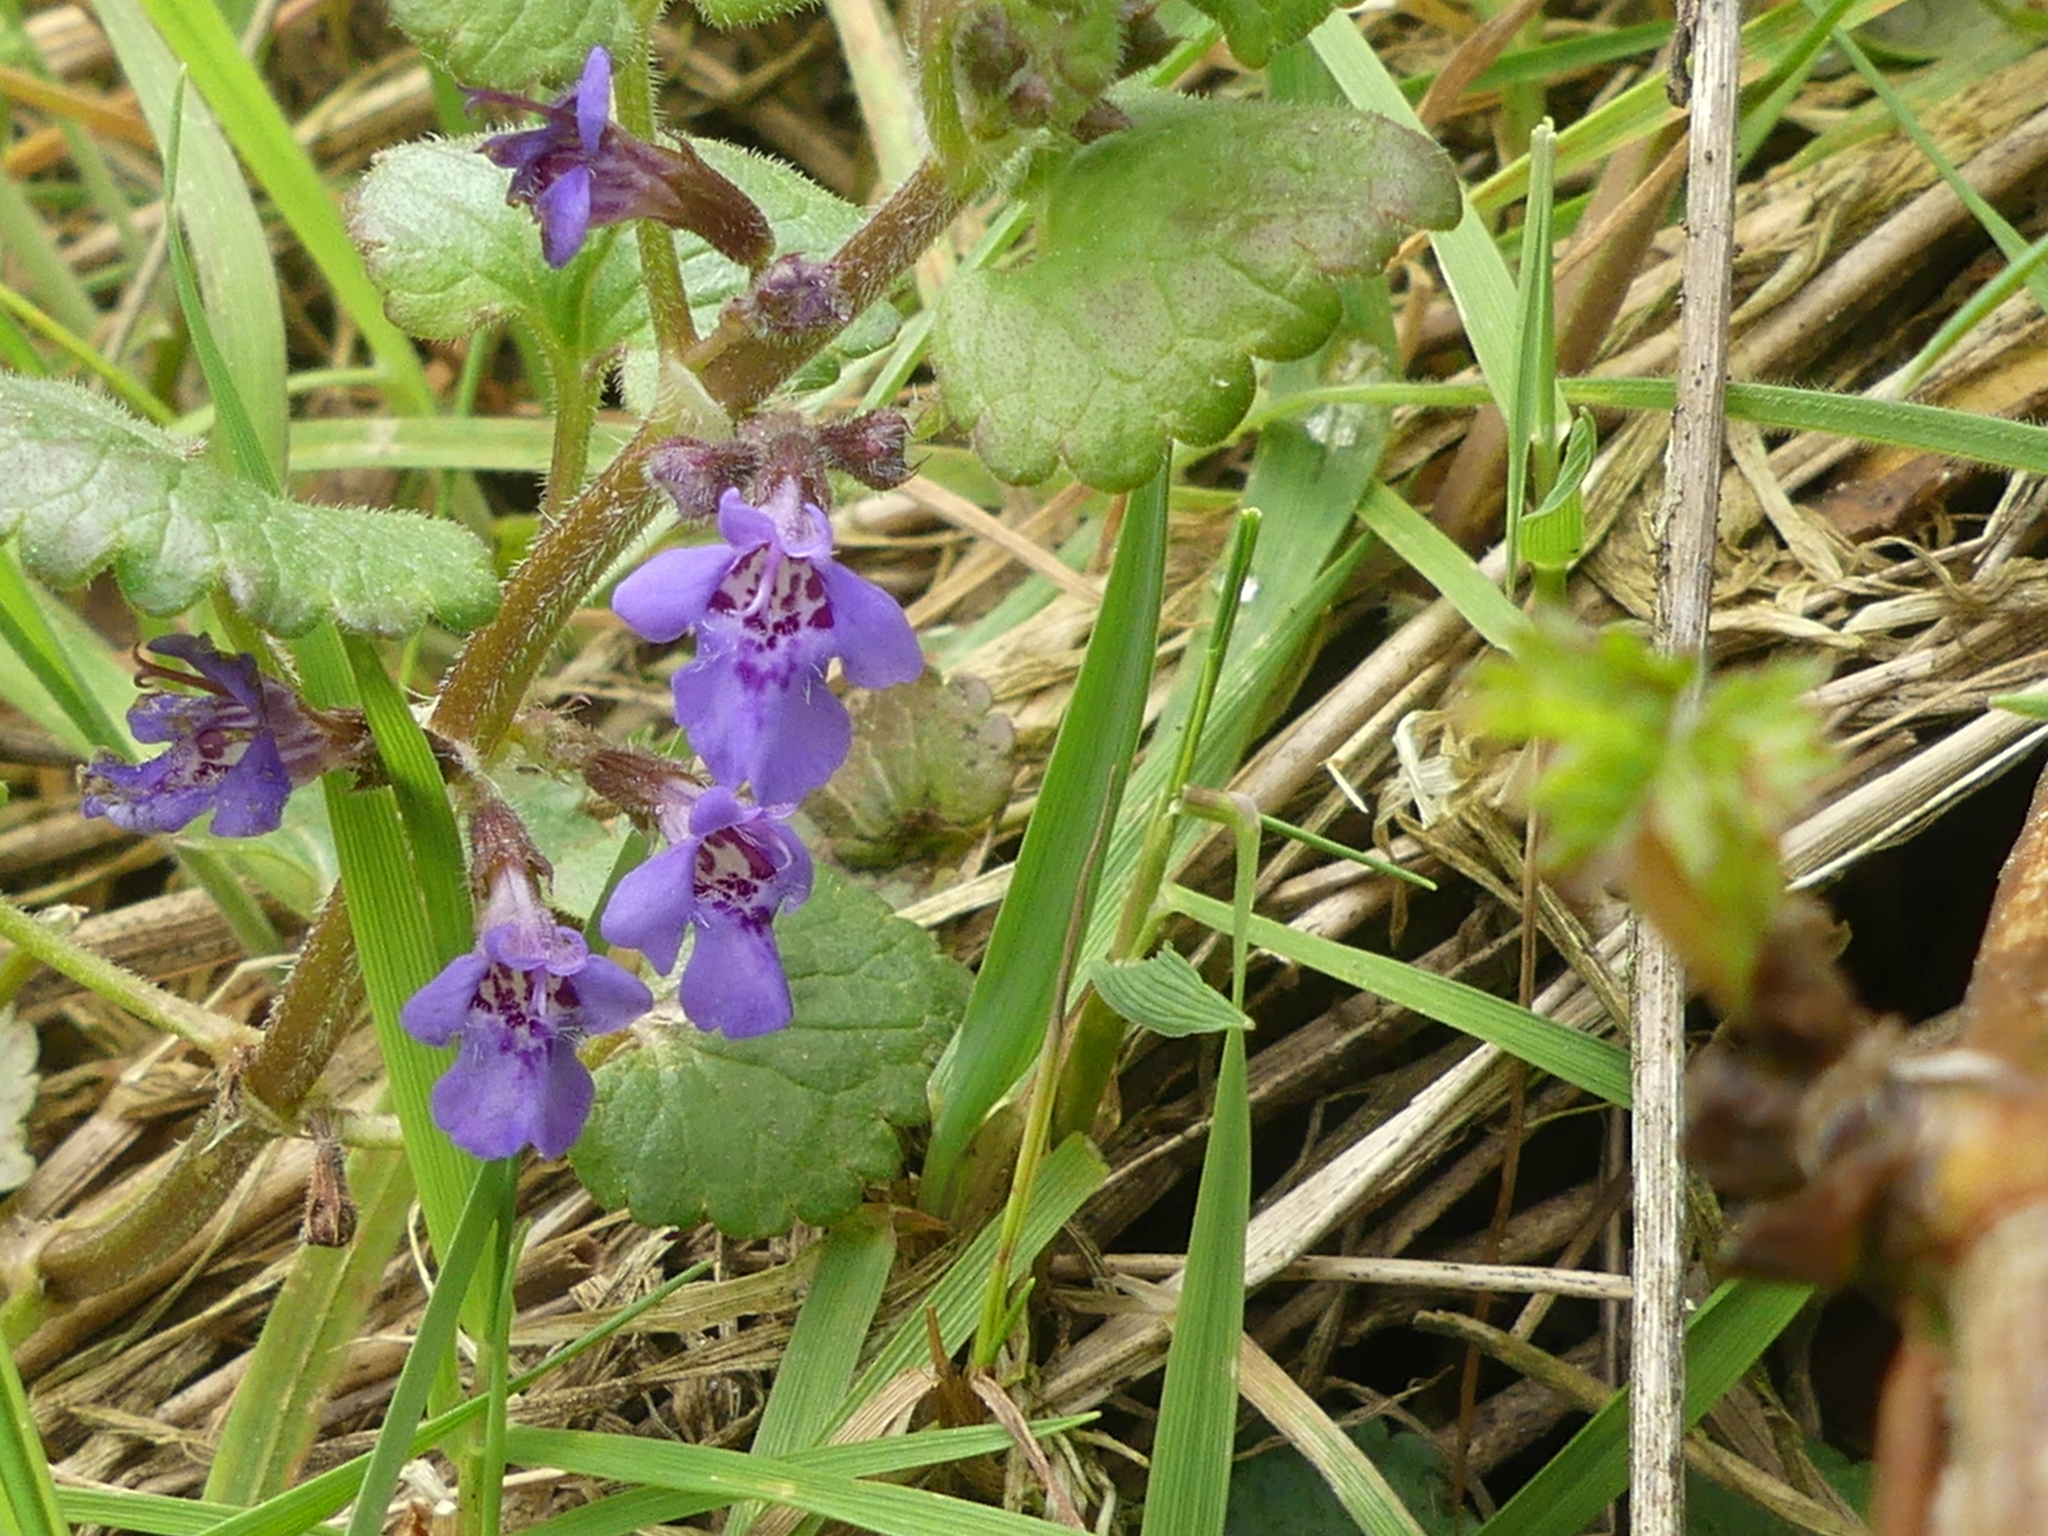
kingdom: Plantae
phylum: Tracheophyta
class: Magnoliopsida
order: Lamiales
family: Lamiaceae
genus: Glechoma
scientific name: Glechoma hederacea
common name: Ground ivy
